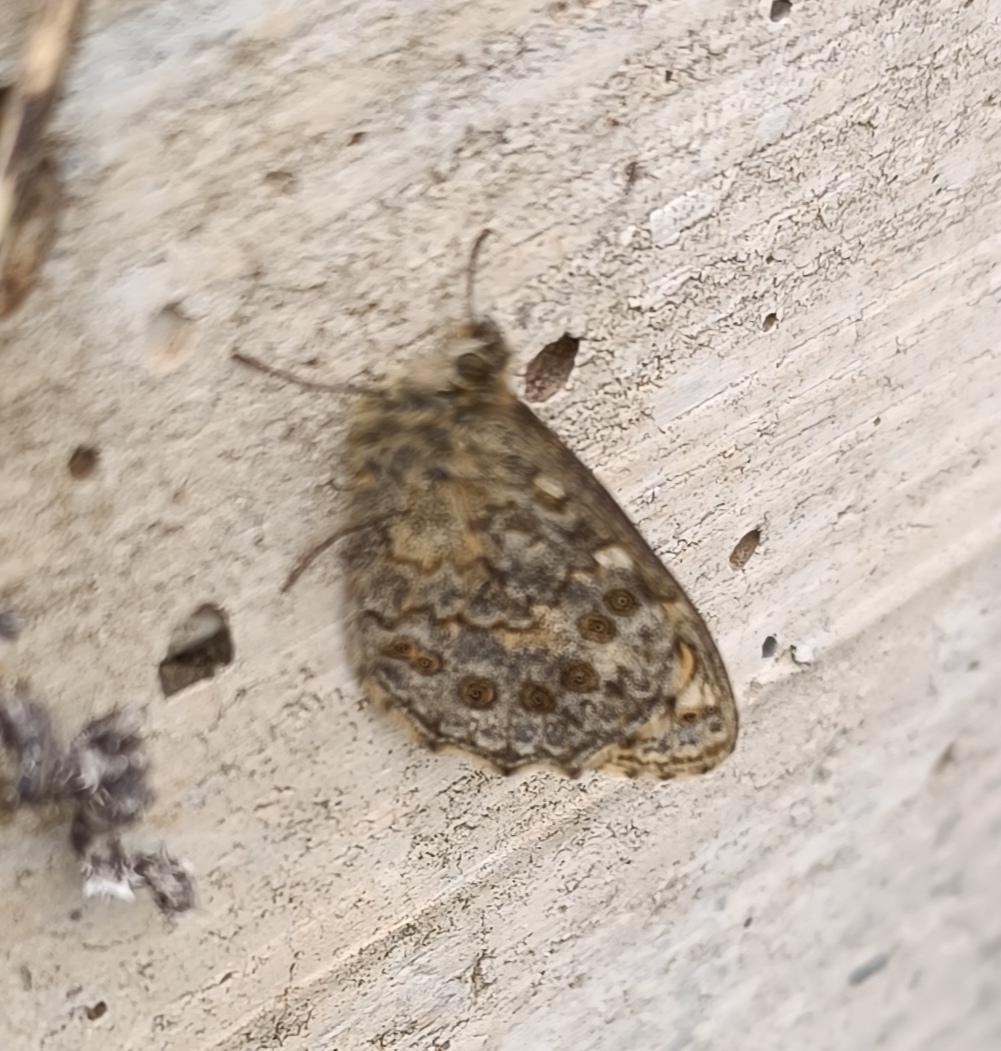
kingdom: Animalia
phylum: Arthropoda
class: Insecta
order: Lepidoptera
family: Nymphalidae
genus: Pararge
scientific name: Pararge Lasiommata megera
